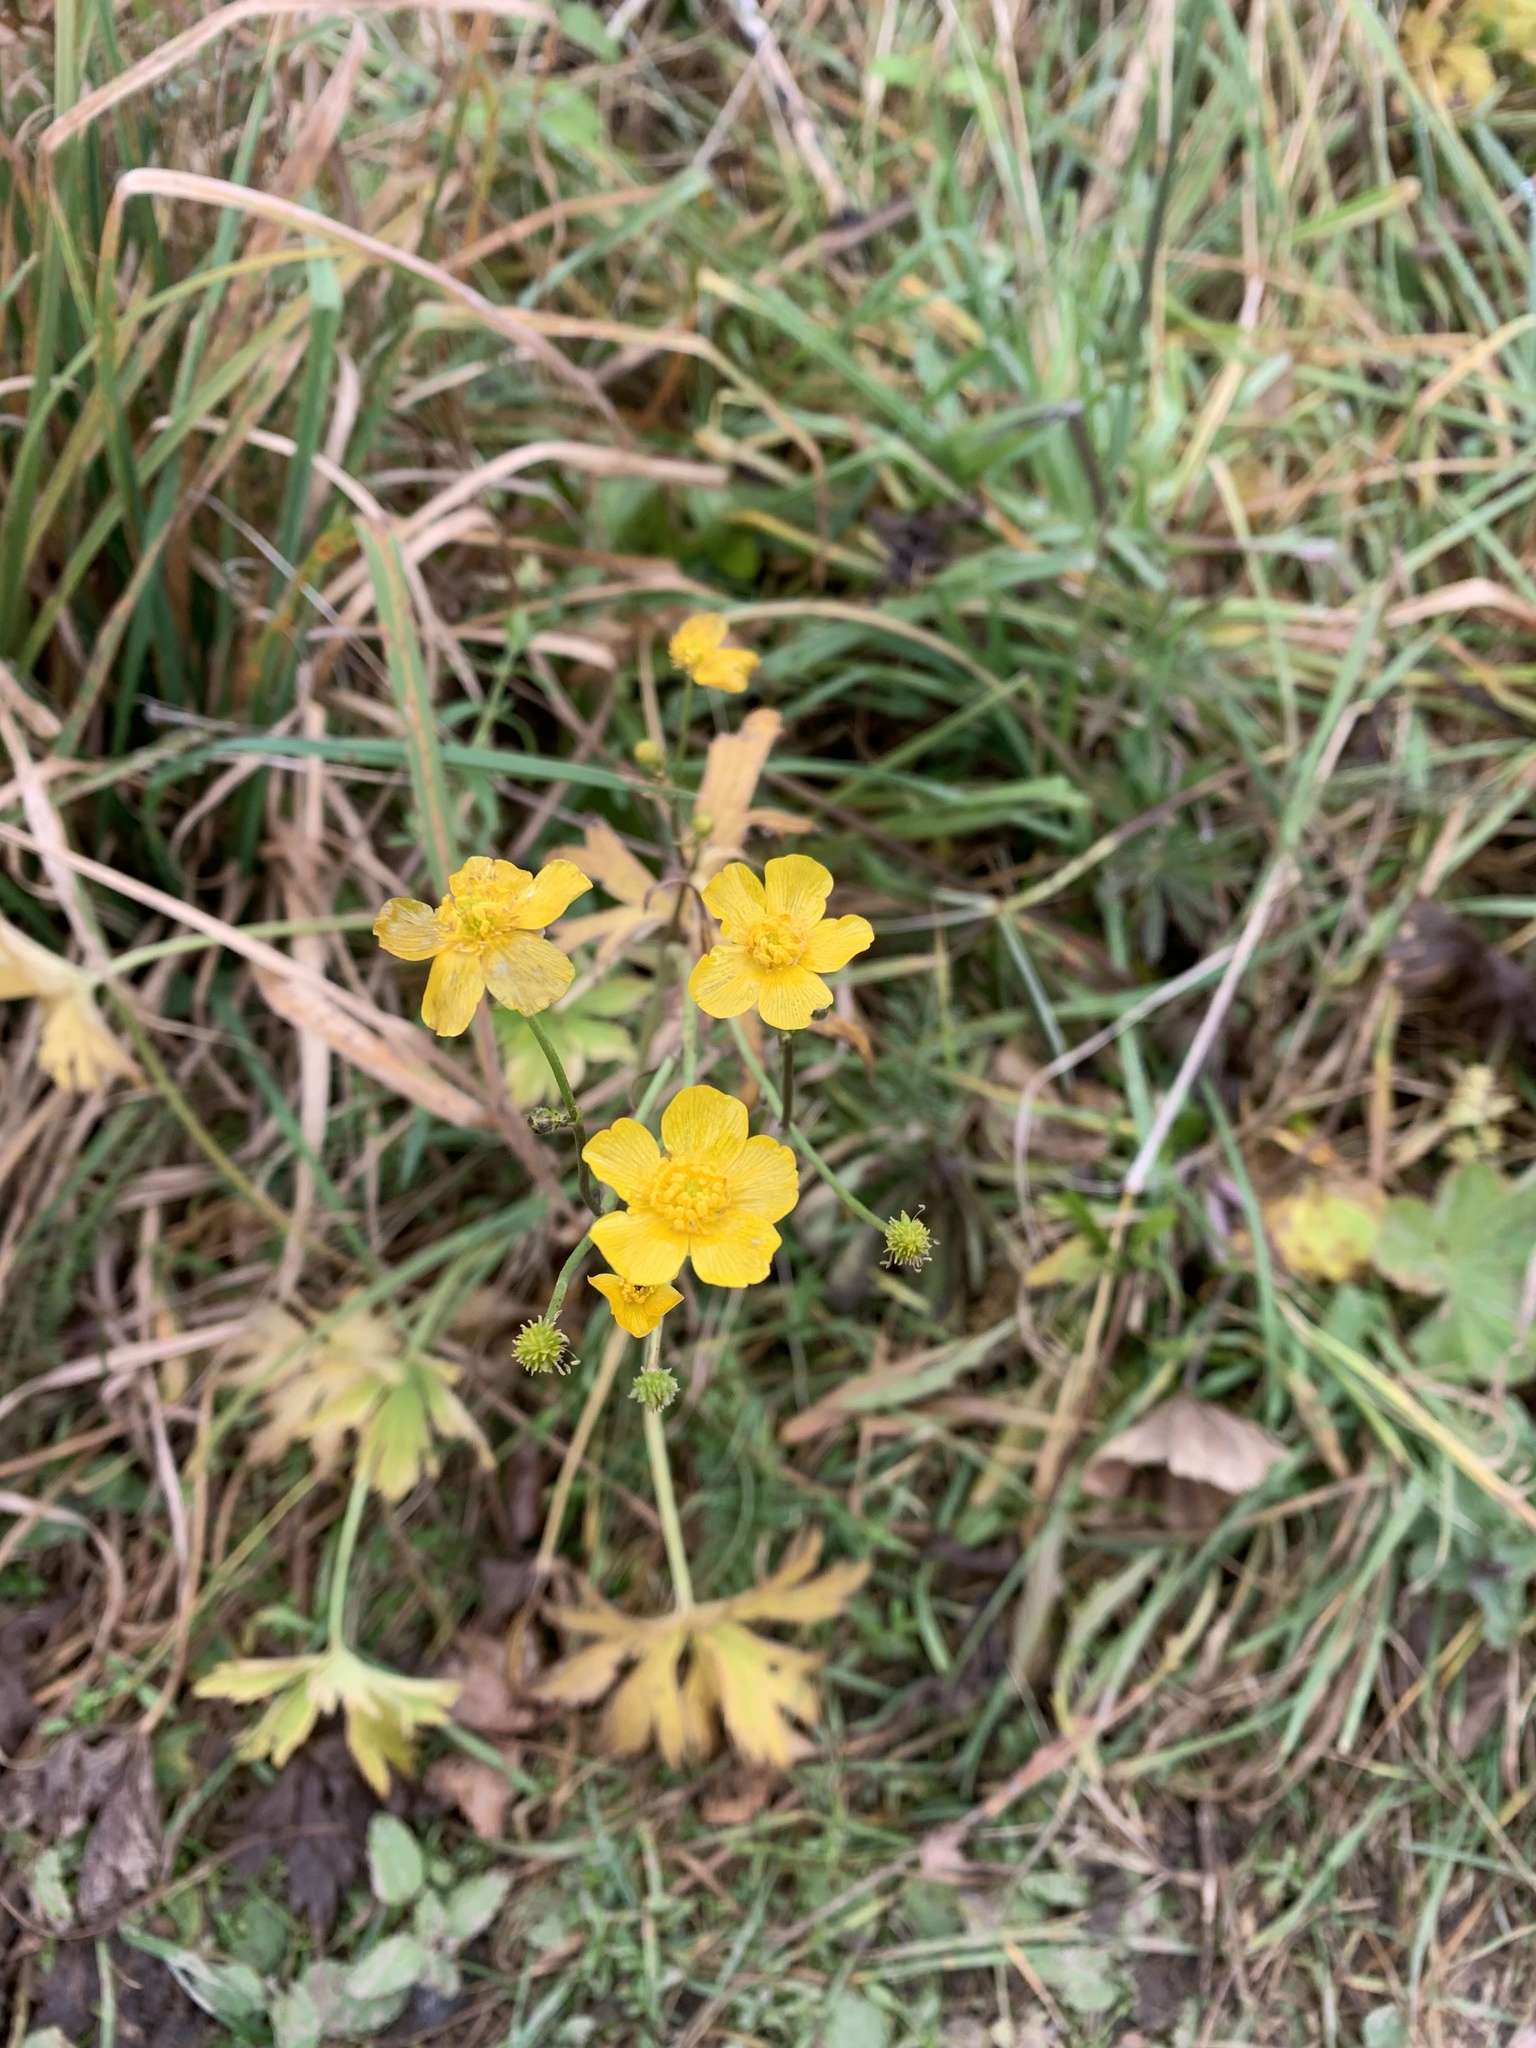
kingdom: Plantae
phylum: Tracheophyta
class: Magnoliopsida
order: Ranunculales
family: Ranunculaceae
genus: Ranunculus
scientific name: Ranunculus acris
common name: Meadow buttercup
